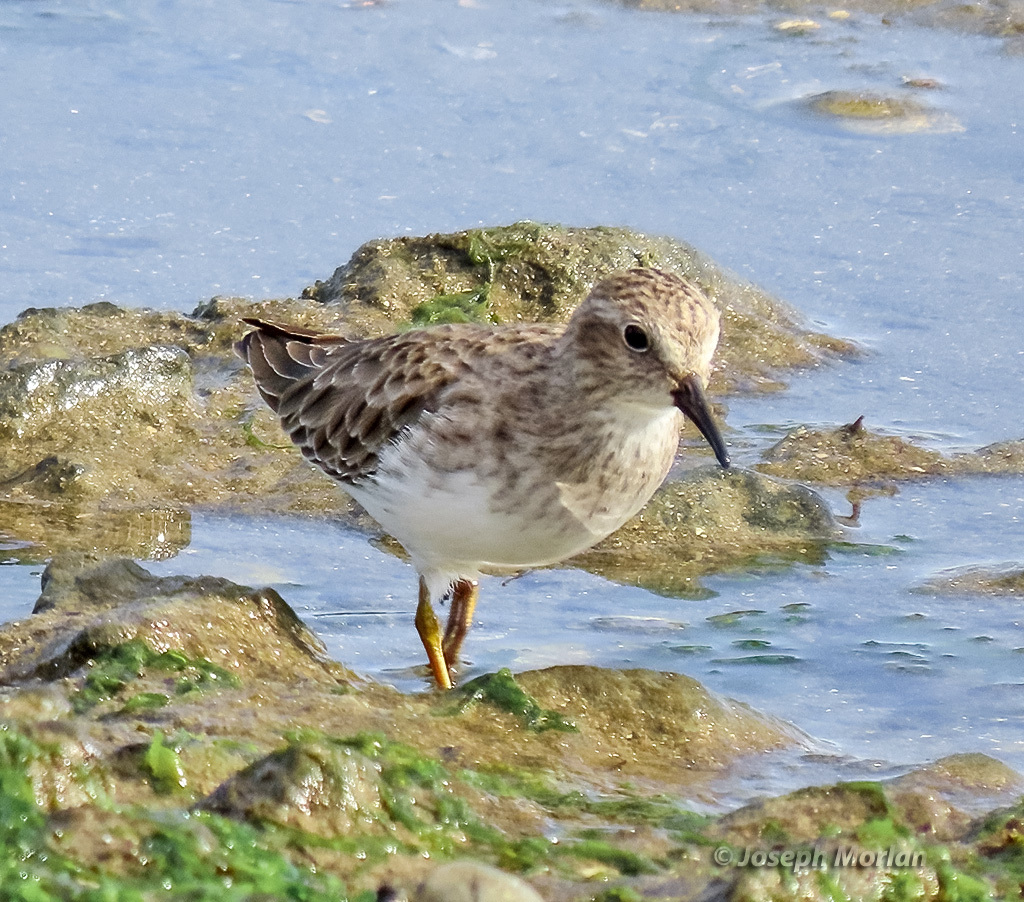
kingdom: Animalia
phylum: Chordata
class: Aves
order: Charadriiformes
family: Scolopacidae
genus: Calidris
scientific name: Calidris minutilla
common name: Least sandpiper
